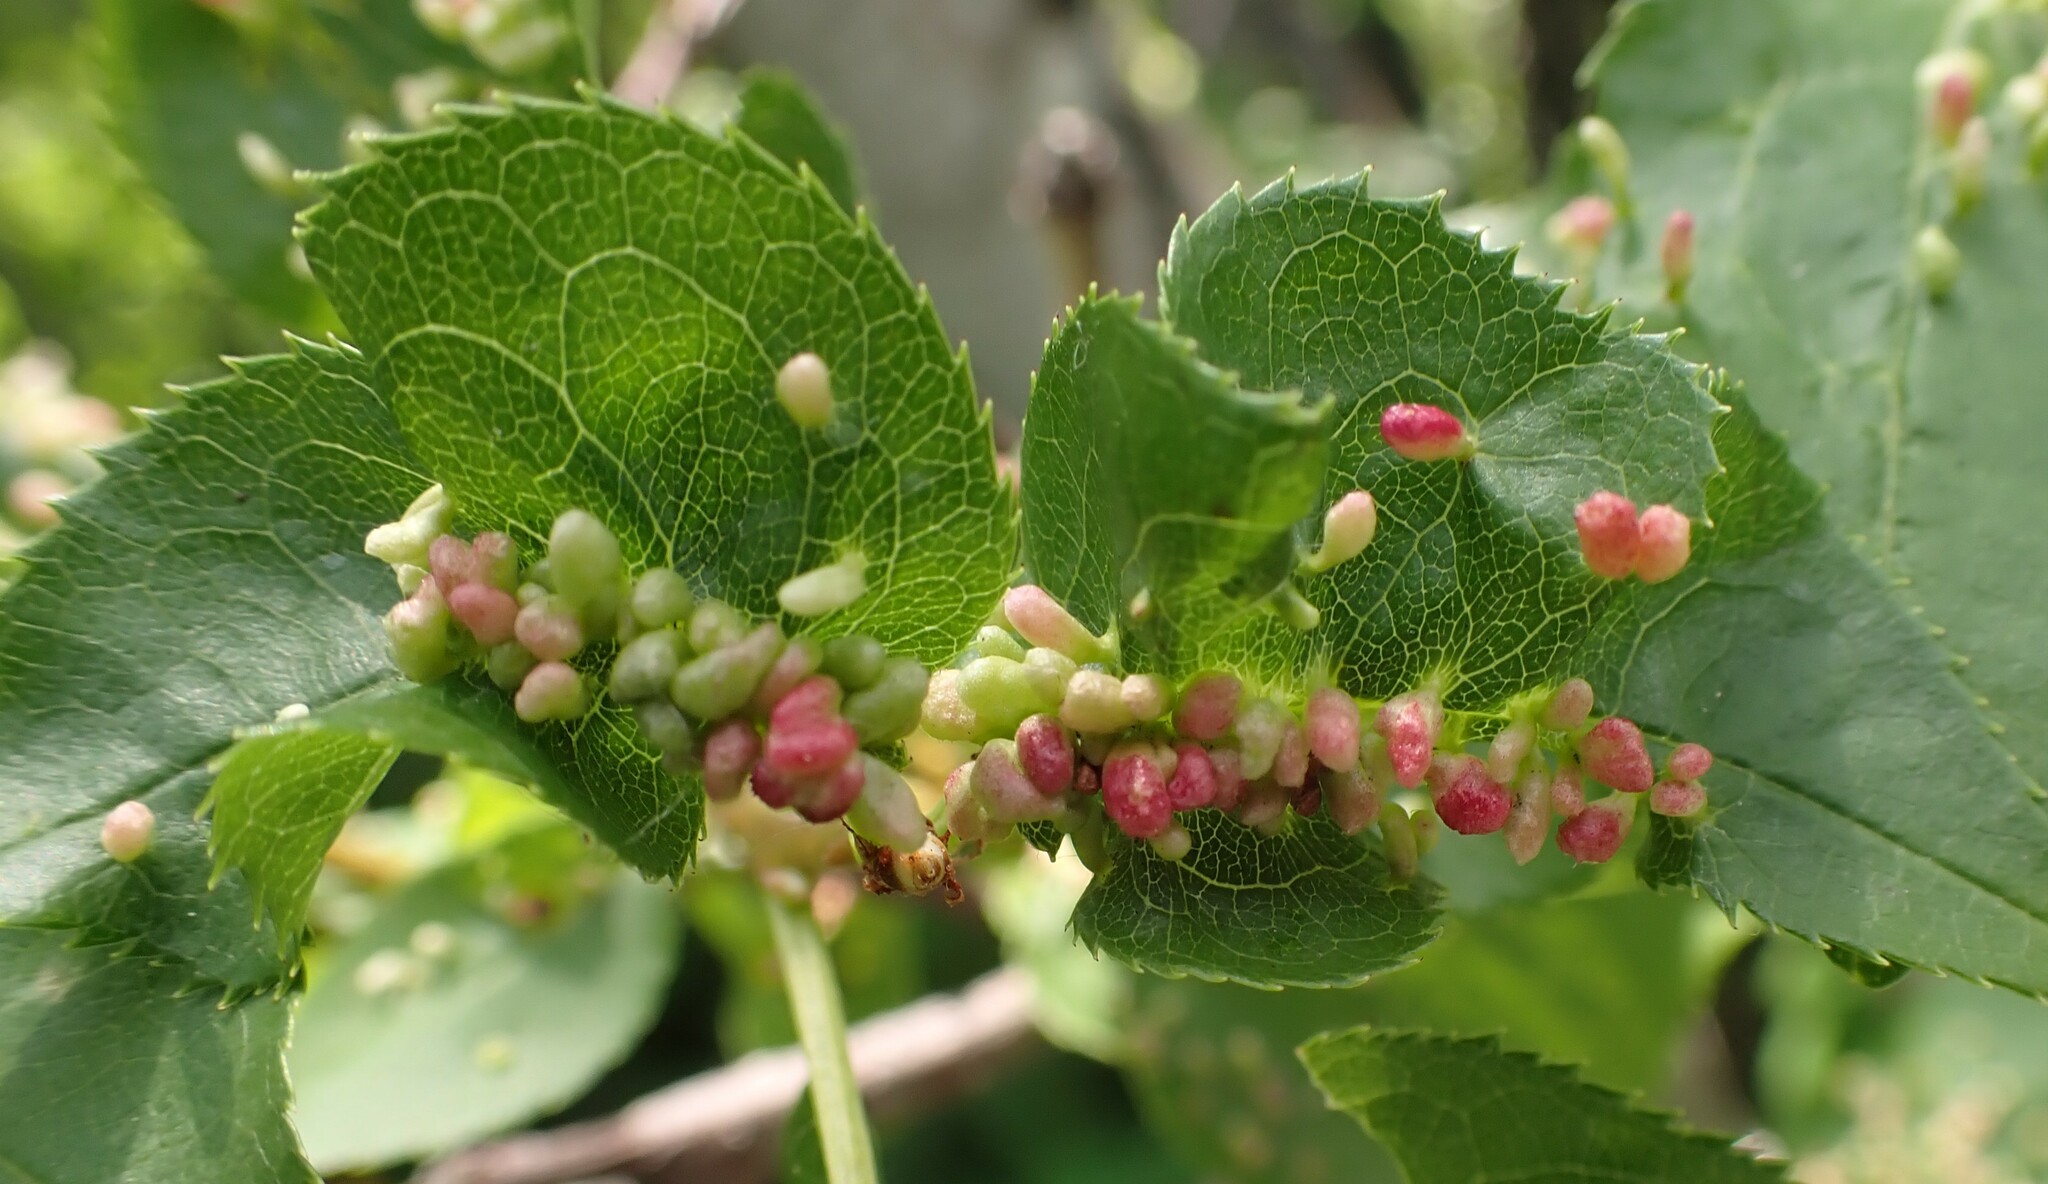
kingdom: Animalia
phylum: Arthropoda
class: Arachnida
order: Trombidiformes
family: Eriophyidae
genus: Eriophyes
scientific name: Eriophyes emarginatae
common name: Plum leaf gall mite
